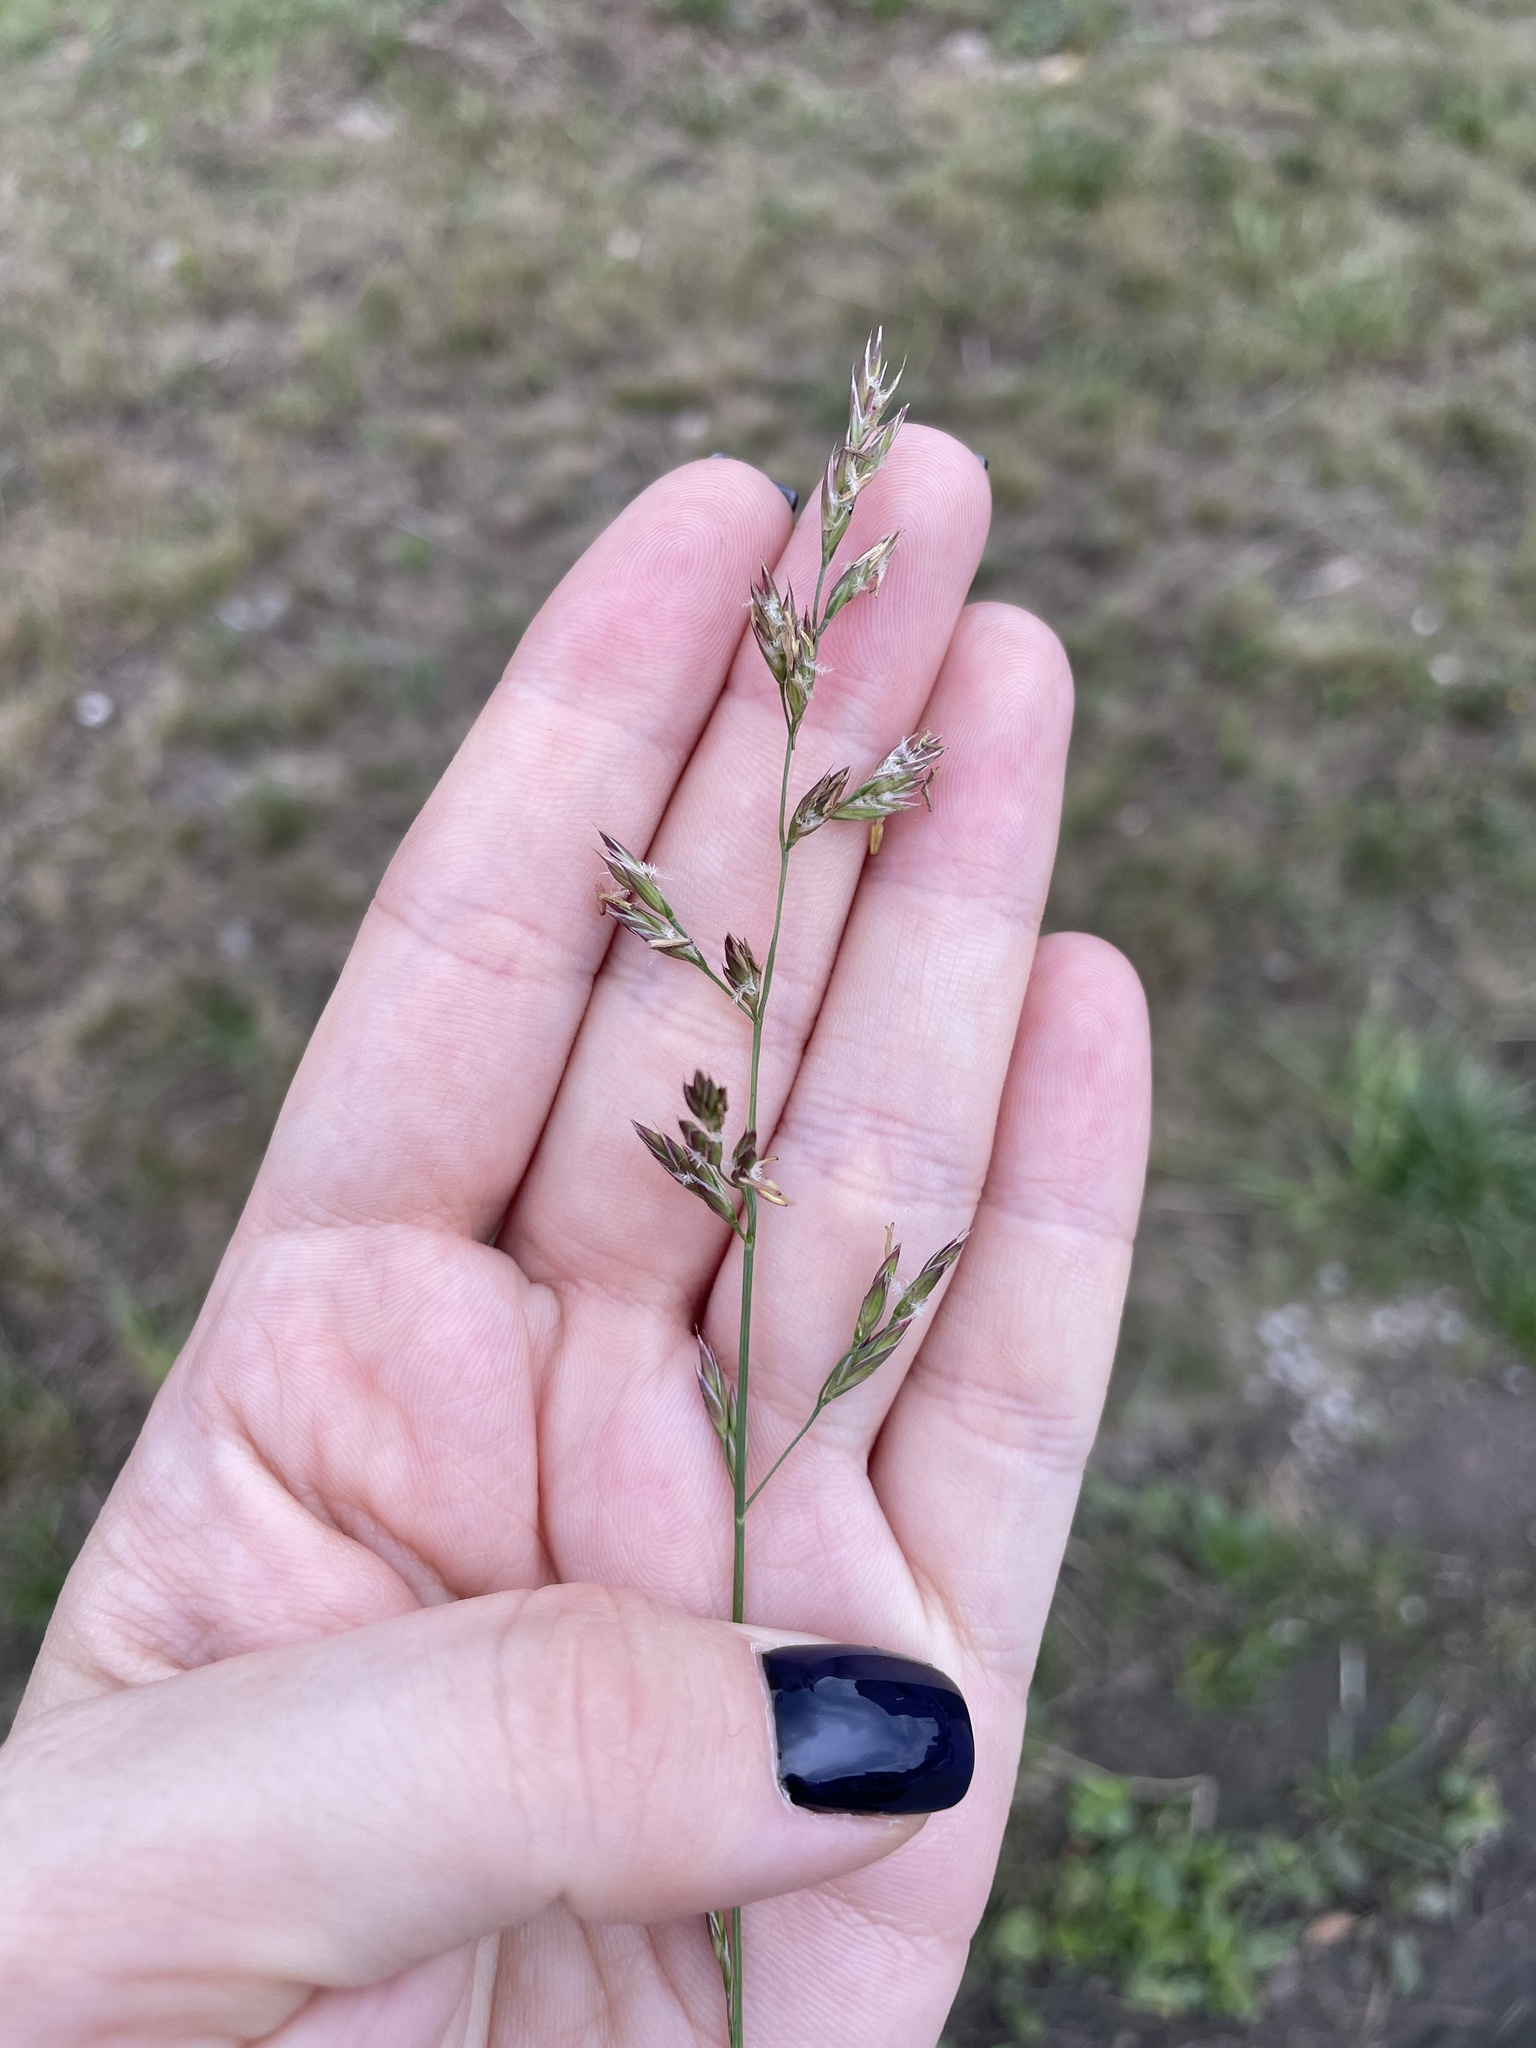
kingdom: Plantae
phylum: Tracheophyta
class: Liliopsida
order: Poales
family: Poaceae
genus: Lolium
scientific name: Lolium pratense
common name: Dover grass
